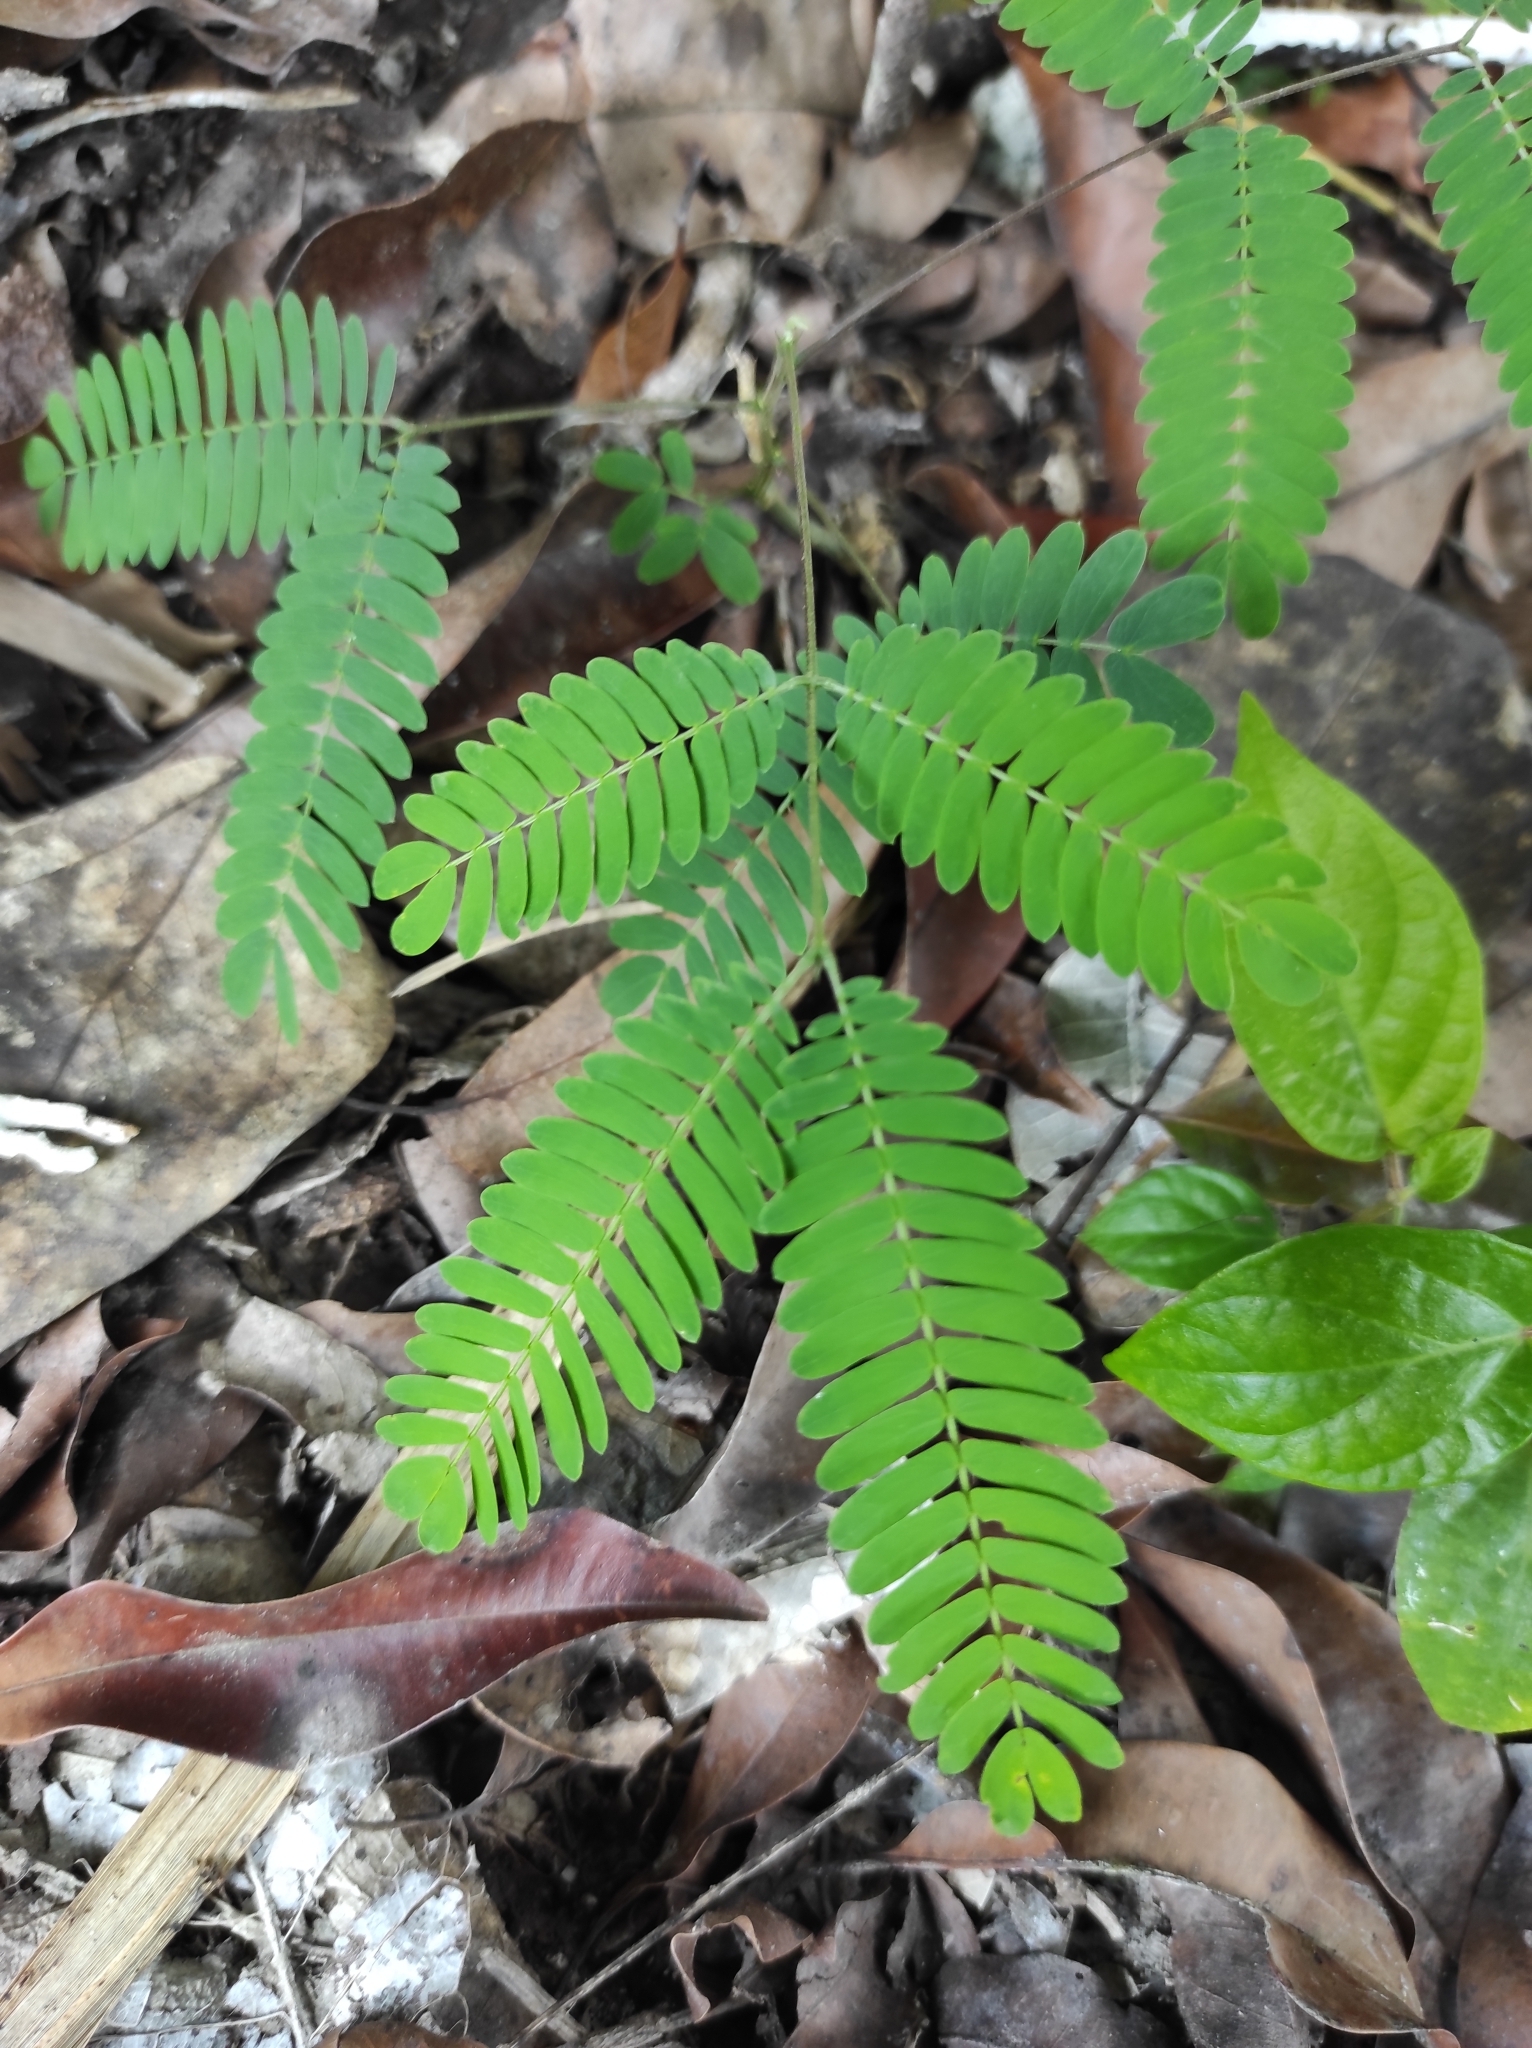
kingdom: Plantae
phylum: Tracheophyta
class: Magnoliopsida
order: Fabales
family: Fabaceae
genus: Mimosa
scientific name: Mimosa pudica
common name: Sensitive plant
